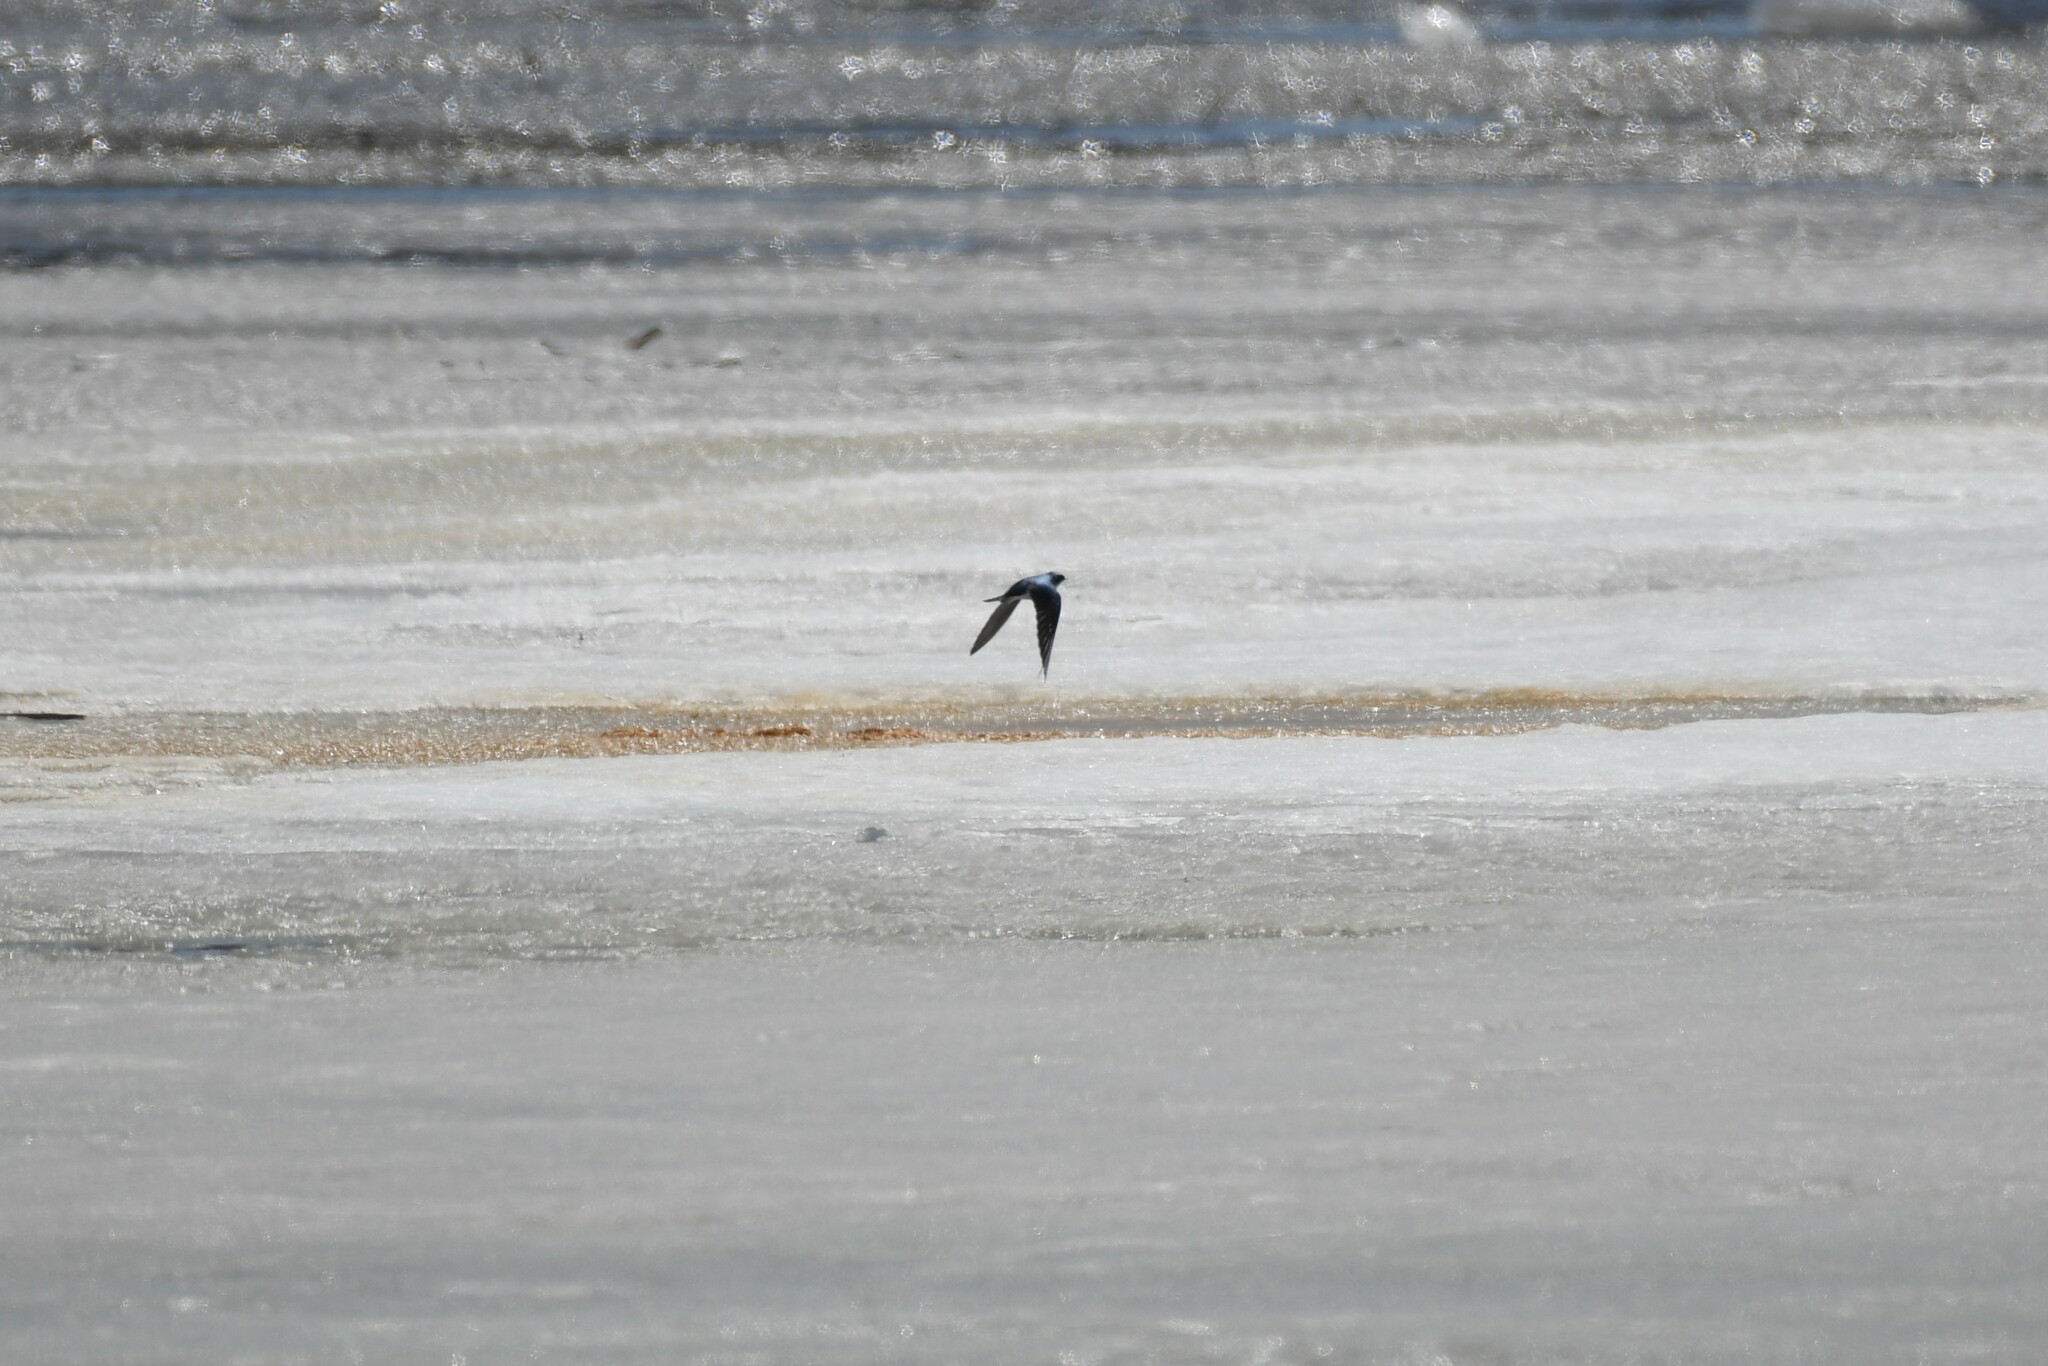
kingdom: Animalia
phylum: Chordata
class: Aves
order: Passeriformes
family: Hirundinidae
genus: Tachycineta
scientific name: Tachycineta bicolor
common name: Tree swallow
